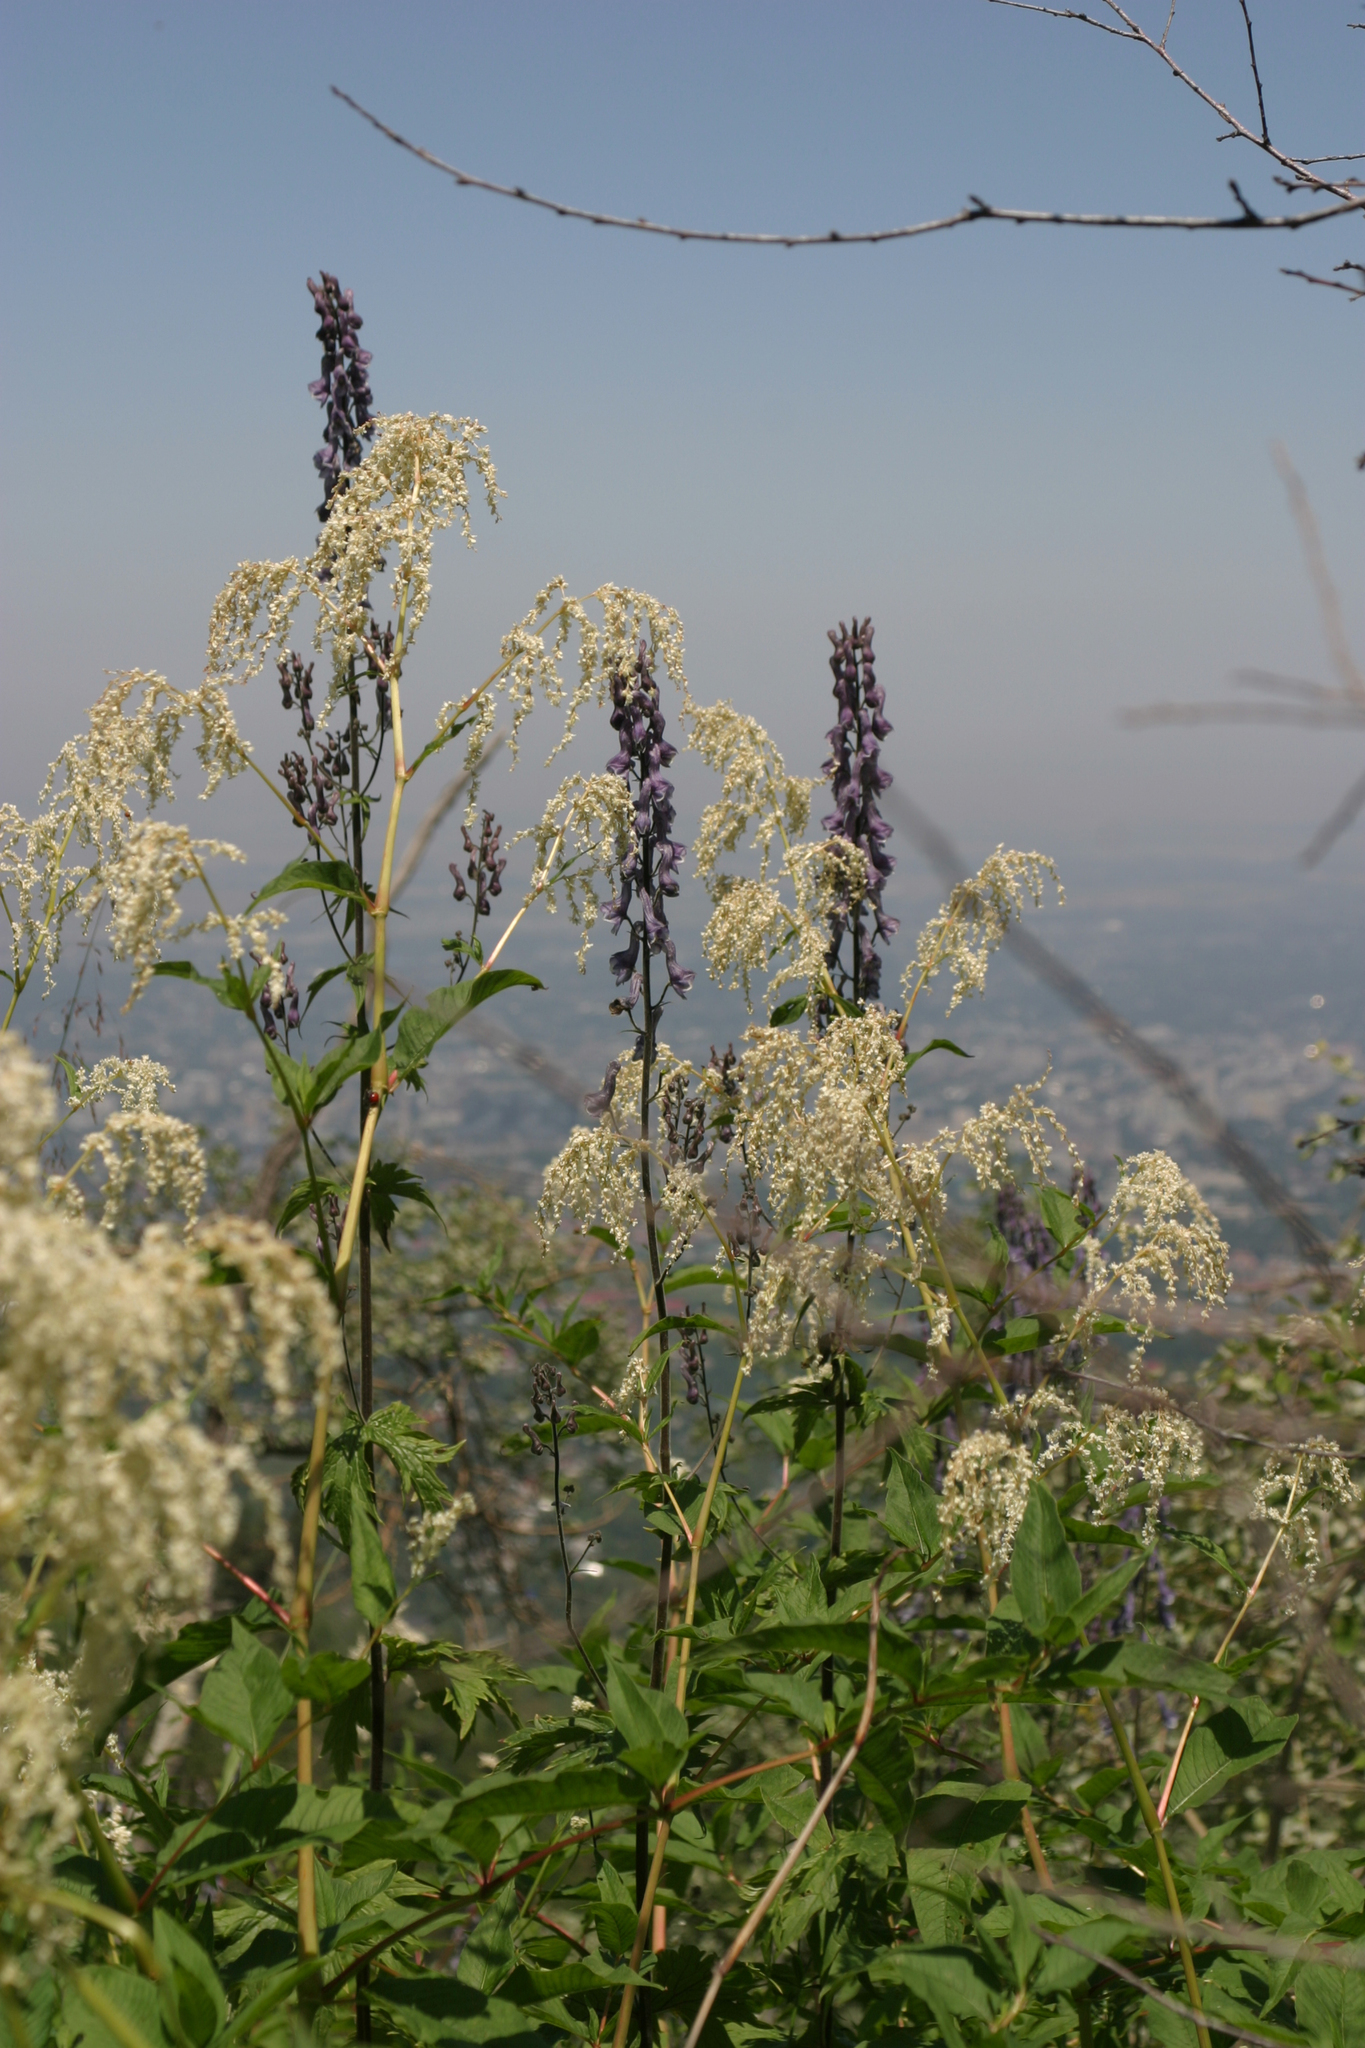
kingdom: Plantae
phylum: Tracheophyta
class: Magnoliopsida
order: Caryophyllales
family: Polygonaceae
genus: Koenigia
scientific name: Koenigia alpina
